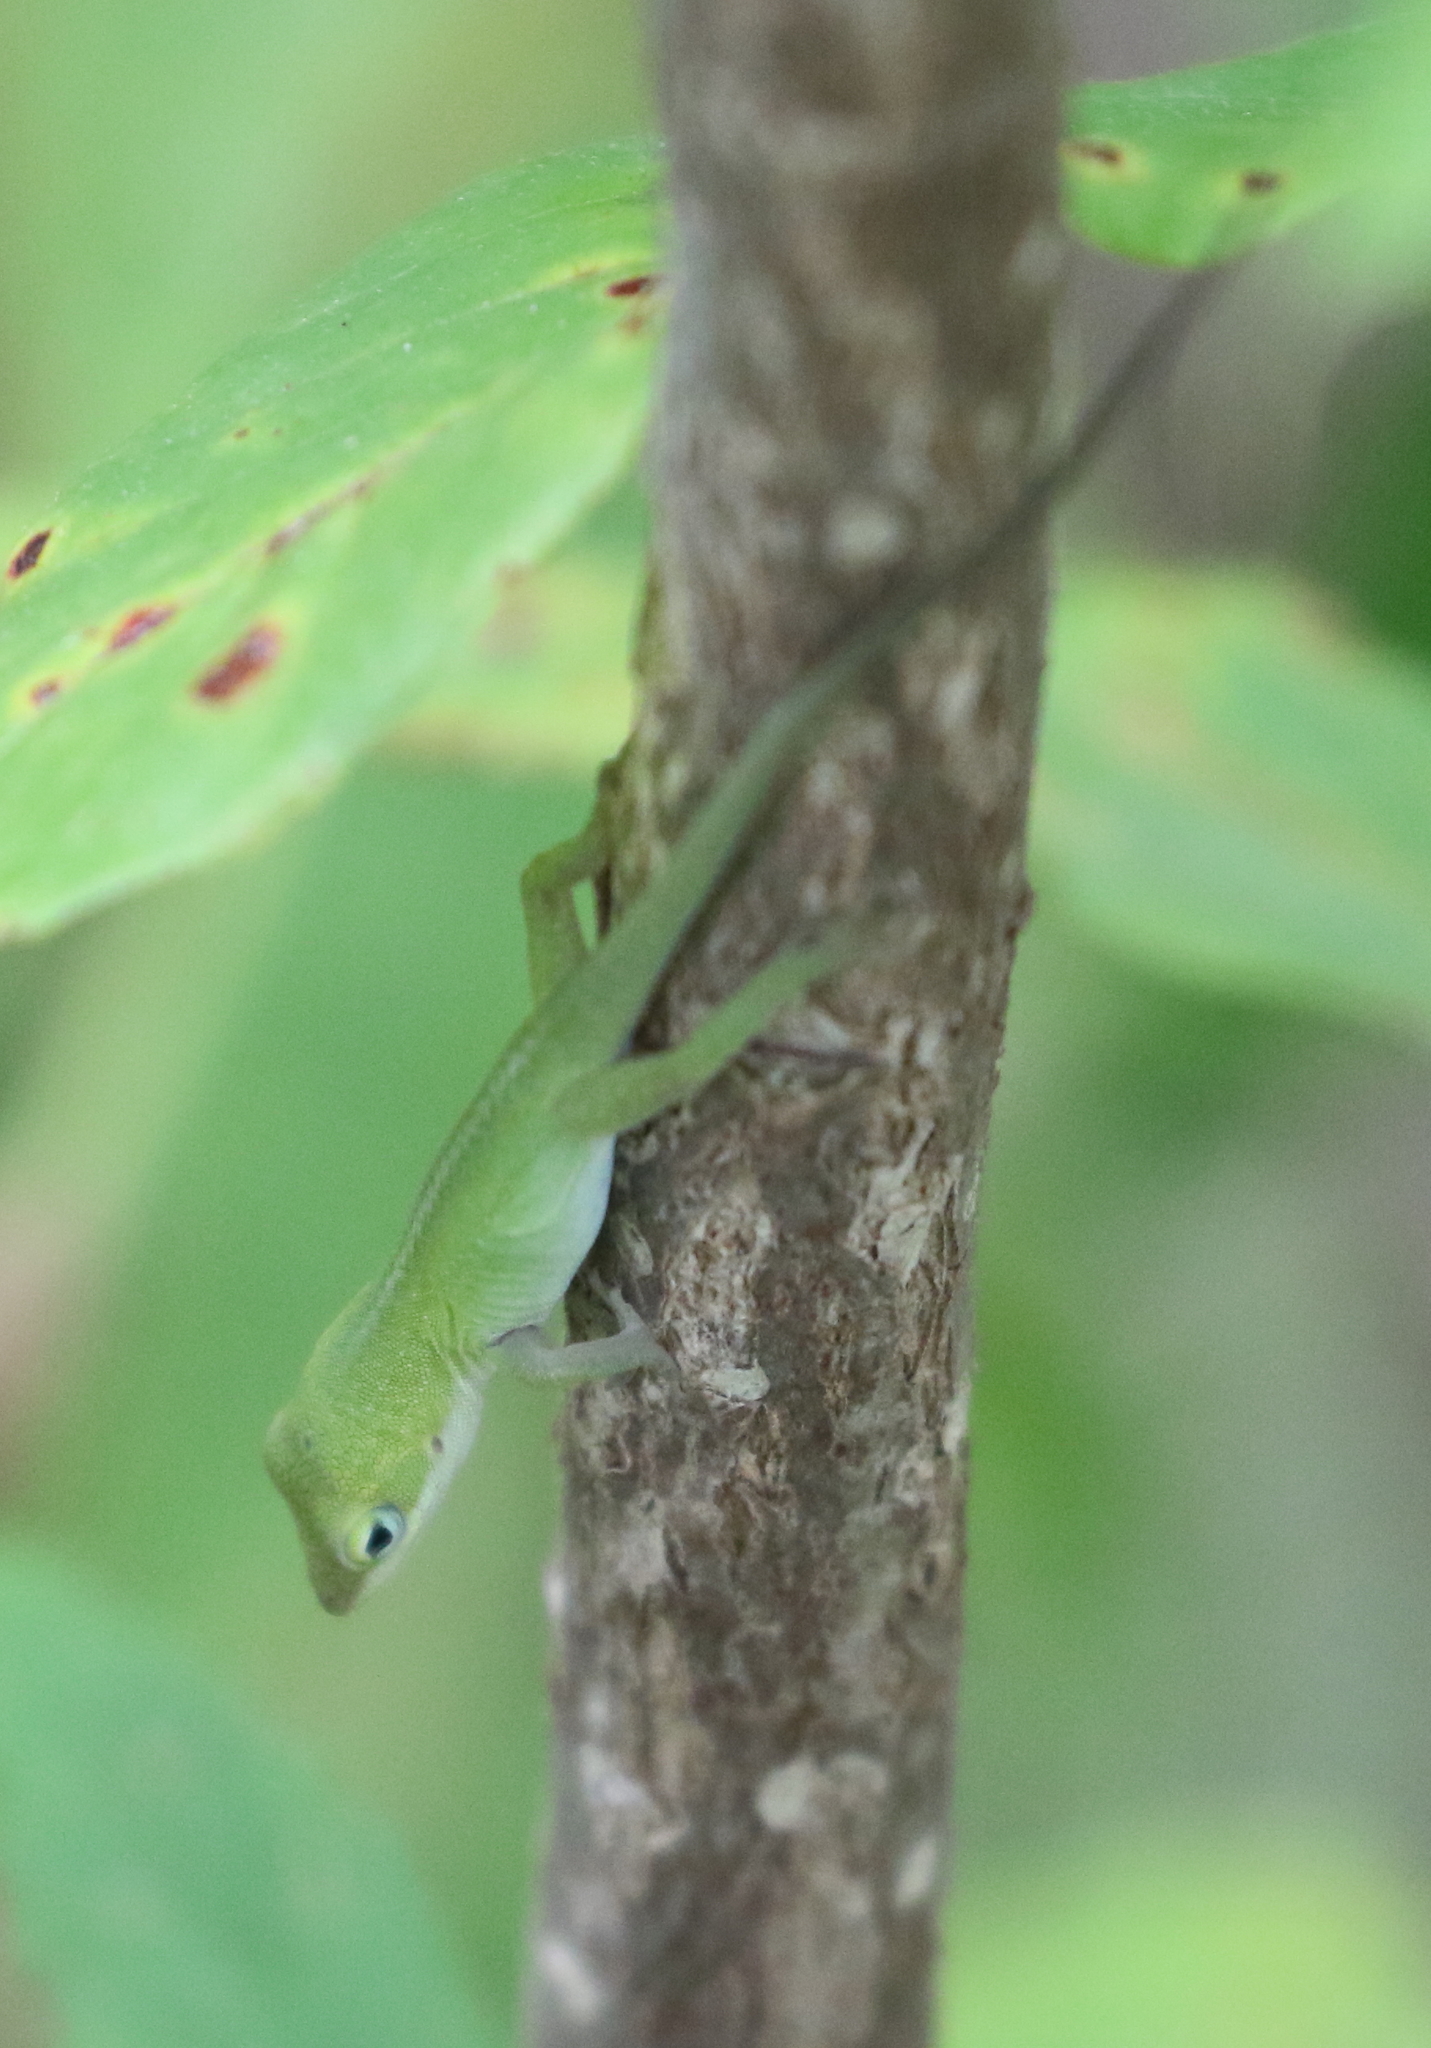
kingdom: Animalia
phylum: Chordata
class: Squamata
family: Dactyloidae
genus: Anolis
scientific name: Anolis carolinensis
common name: Green anole
